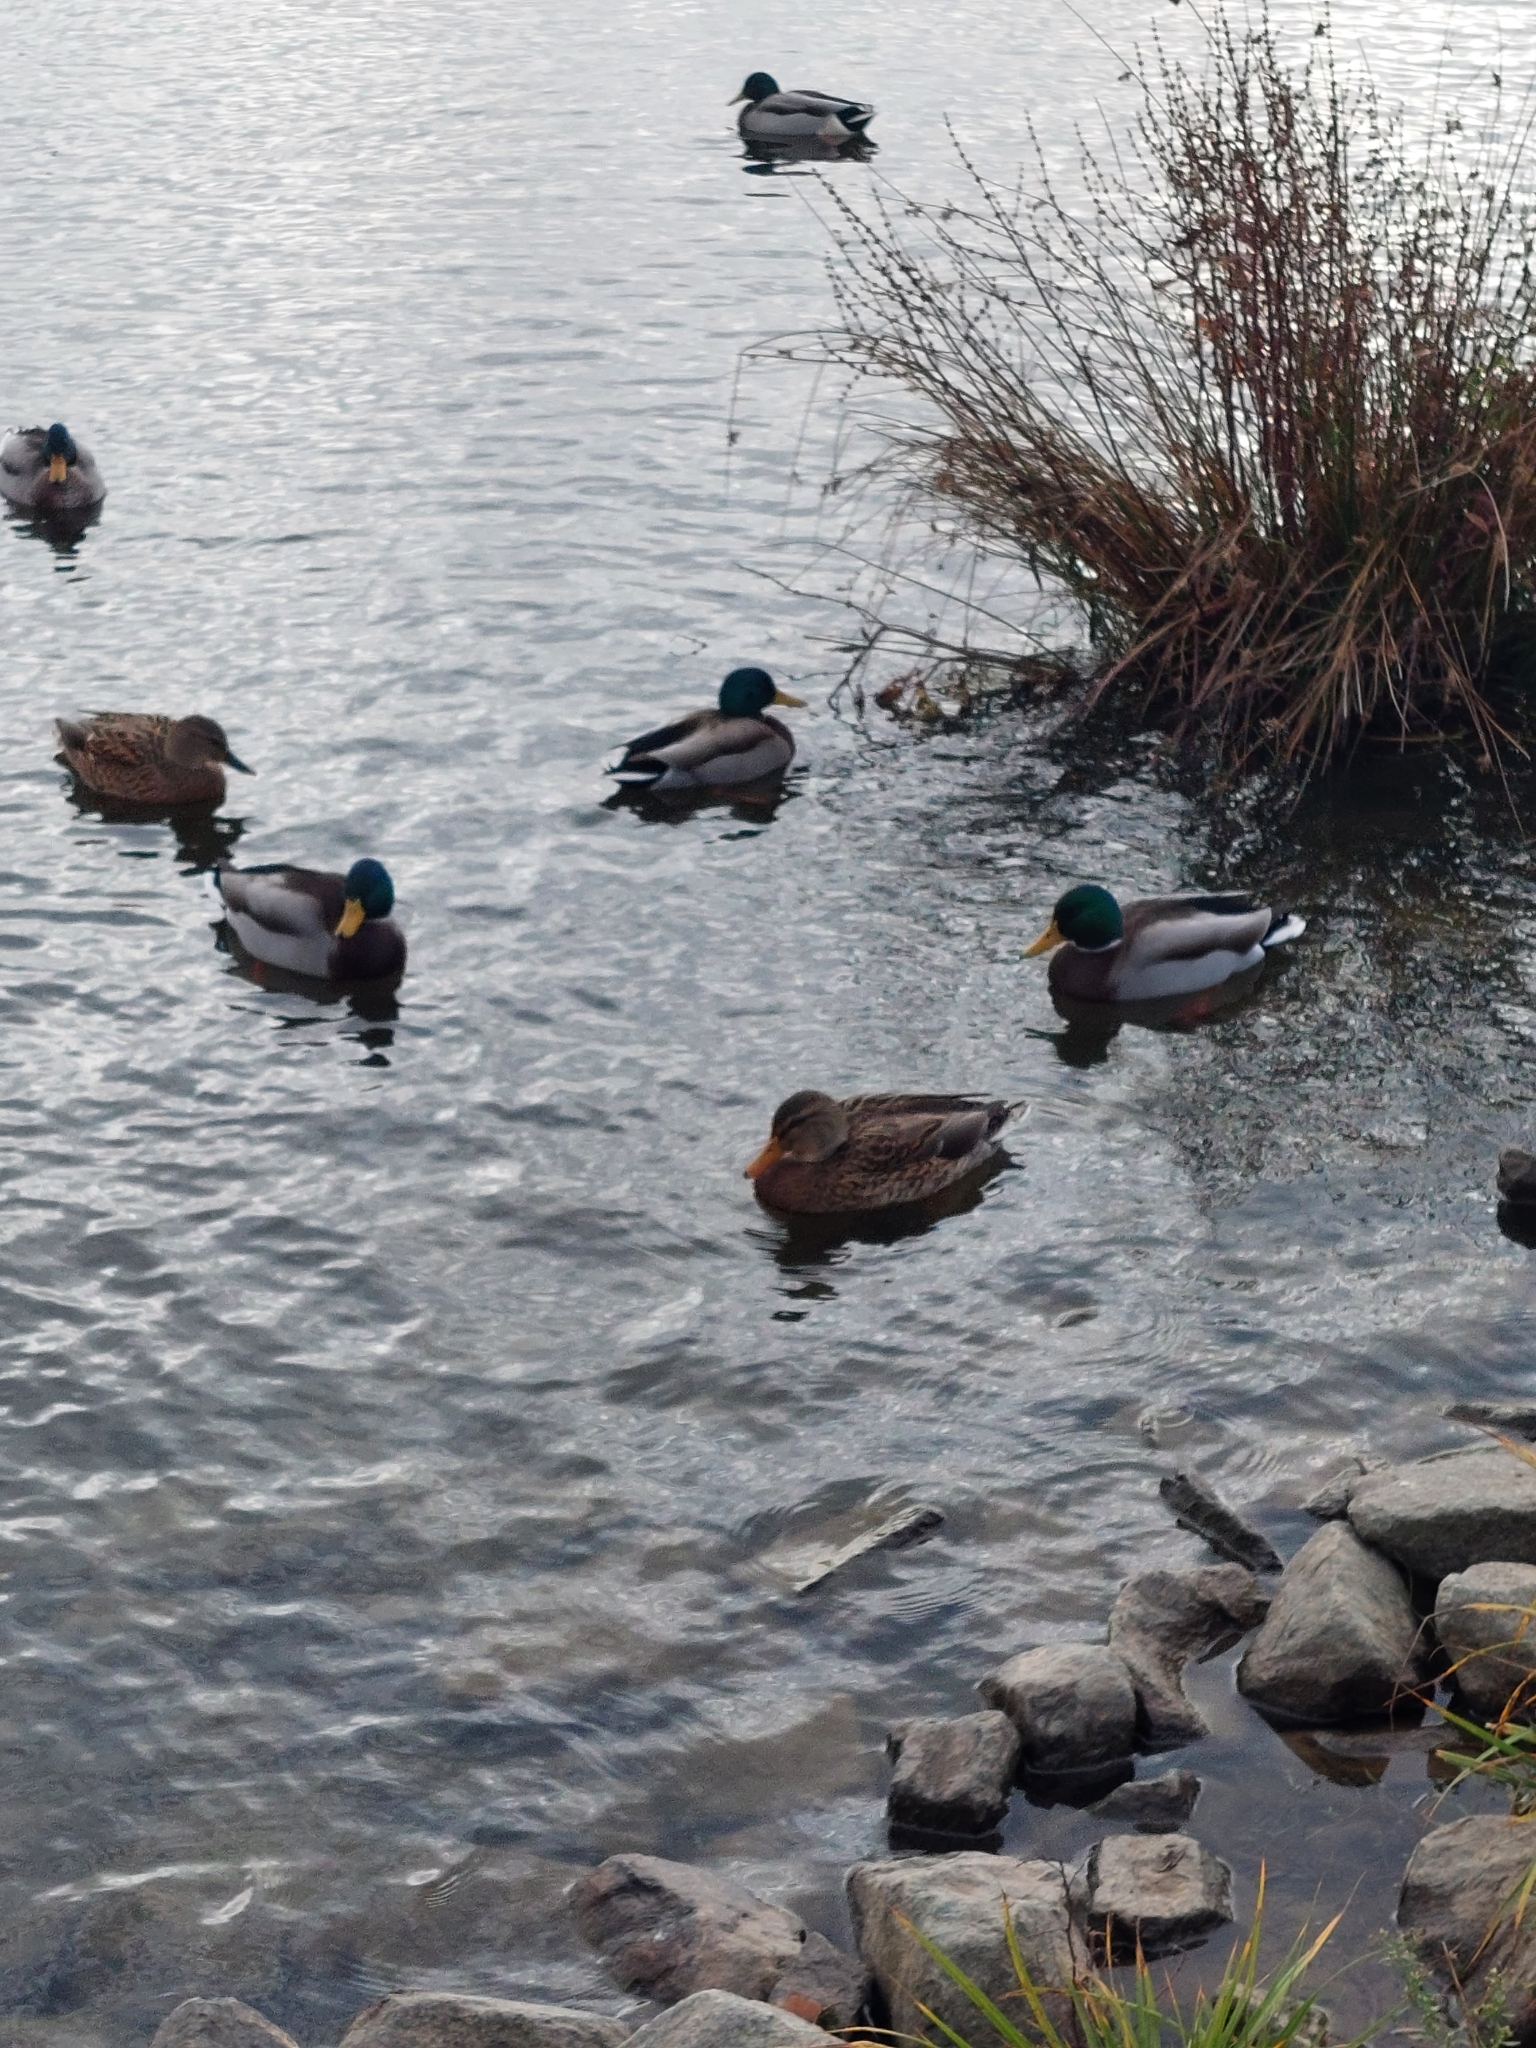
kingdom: Animalia
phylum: Chordata
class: Aves
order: Anseriformes
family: Anatidae
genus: Anas
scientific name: Anas platyrhynchos
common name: Mallard
